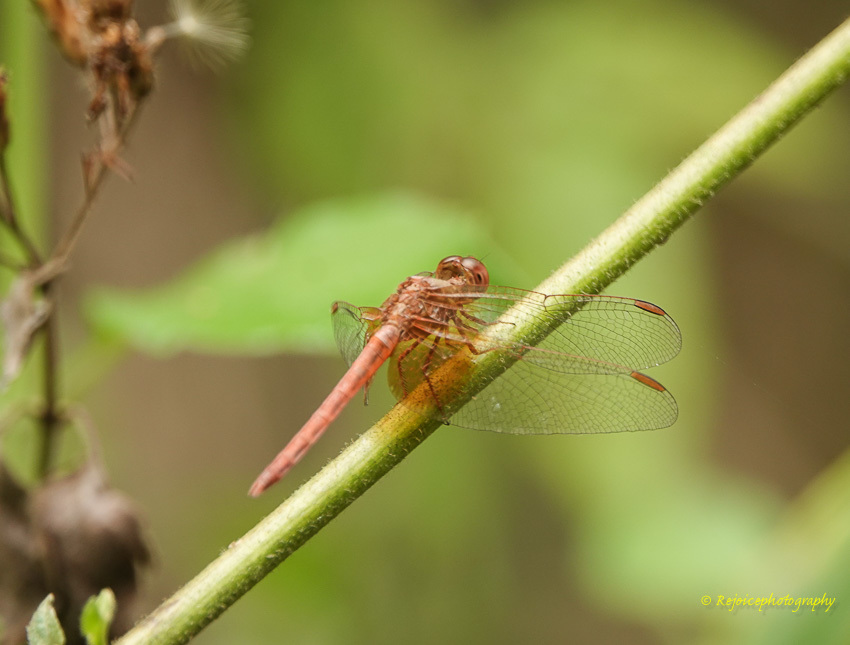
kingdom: Animalia
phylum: Arthropoda
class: Insecta
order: Odonata
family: Libellulidae
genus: Neurothemis
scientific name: Neurothemis intermedia
